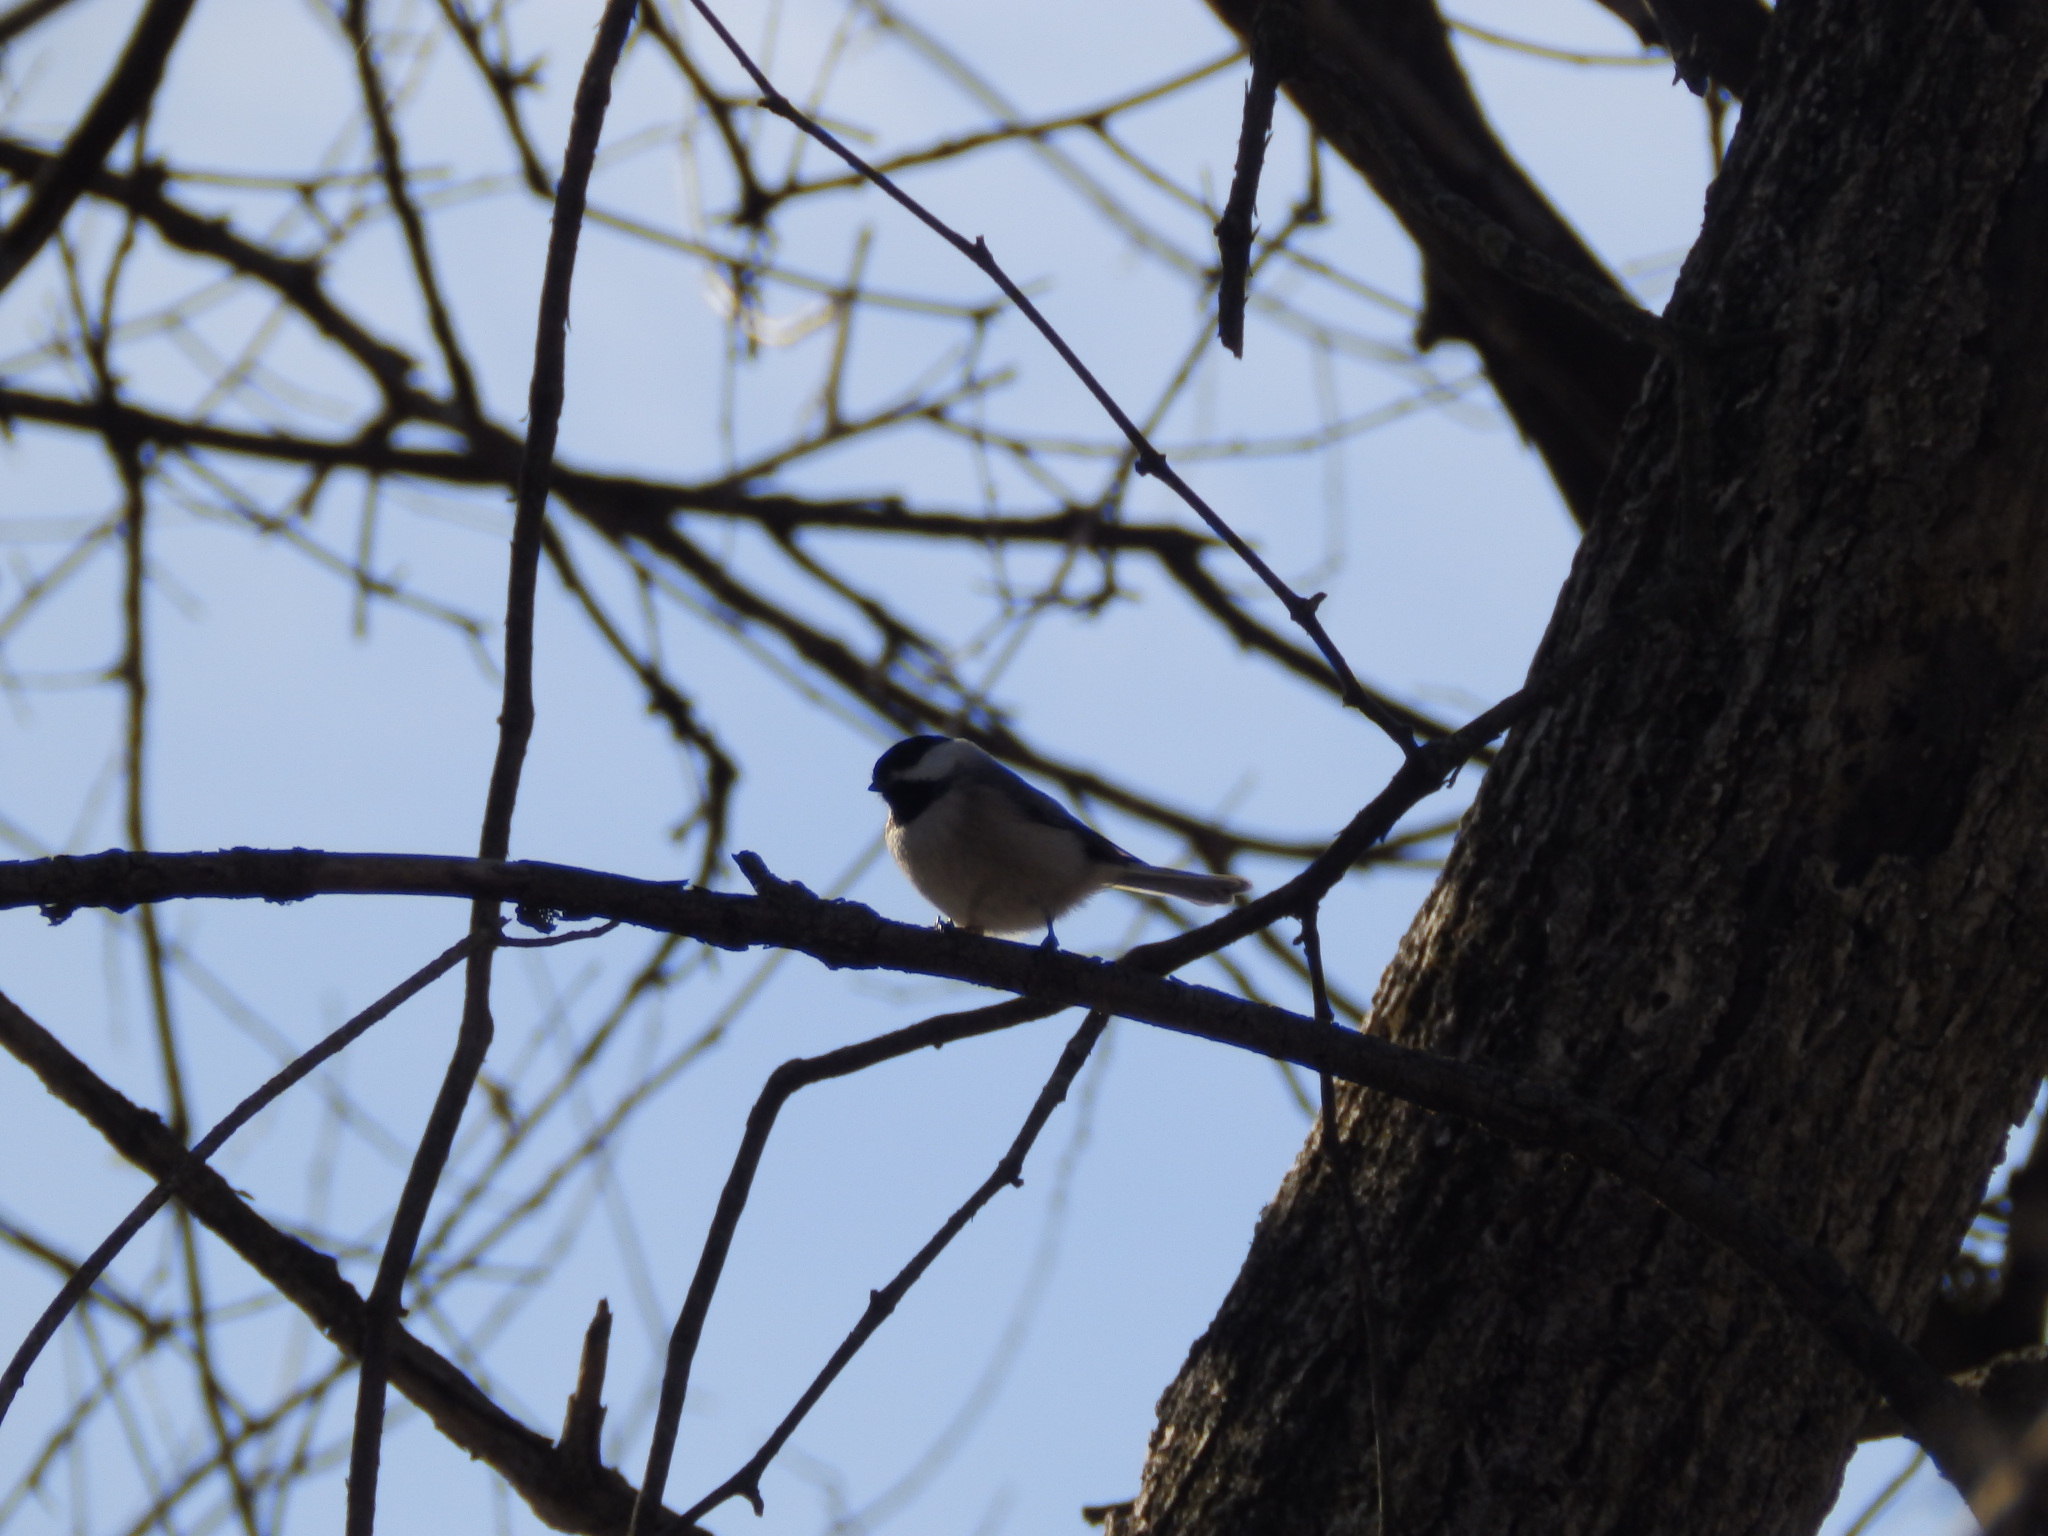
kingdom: Animalia
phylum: Chordata
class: Aves
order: Passeriformes
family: Paridae
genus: Poecile
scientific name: Poecile carolinensis
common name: Carolina chickadee
